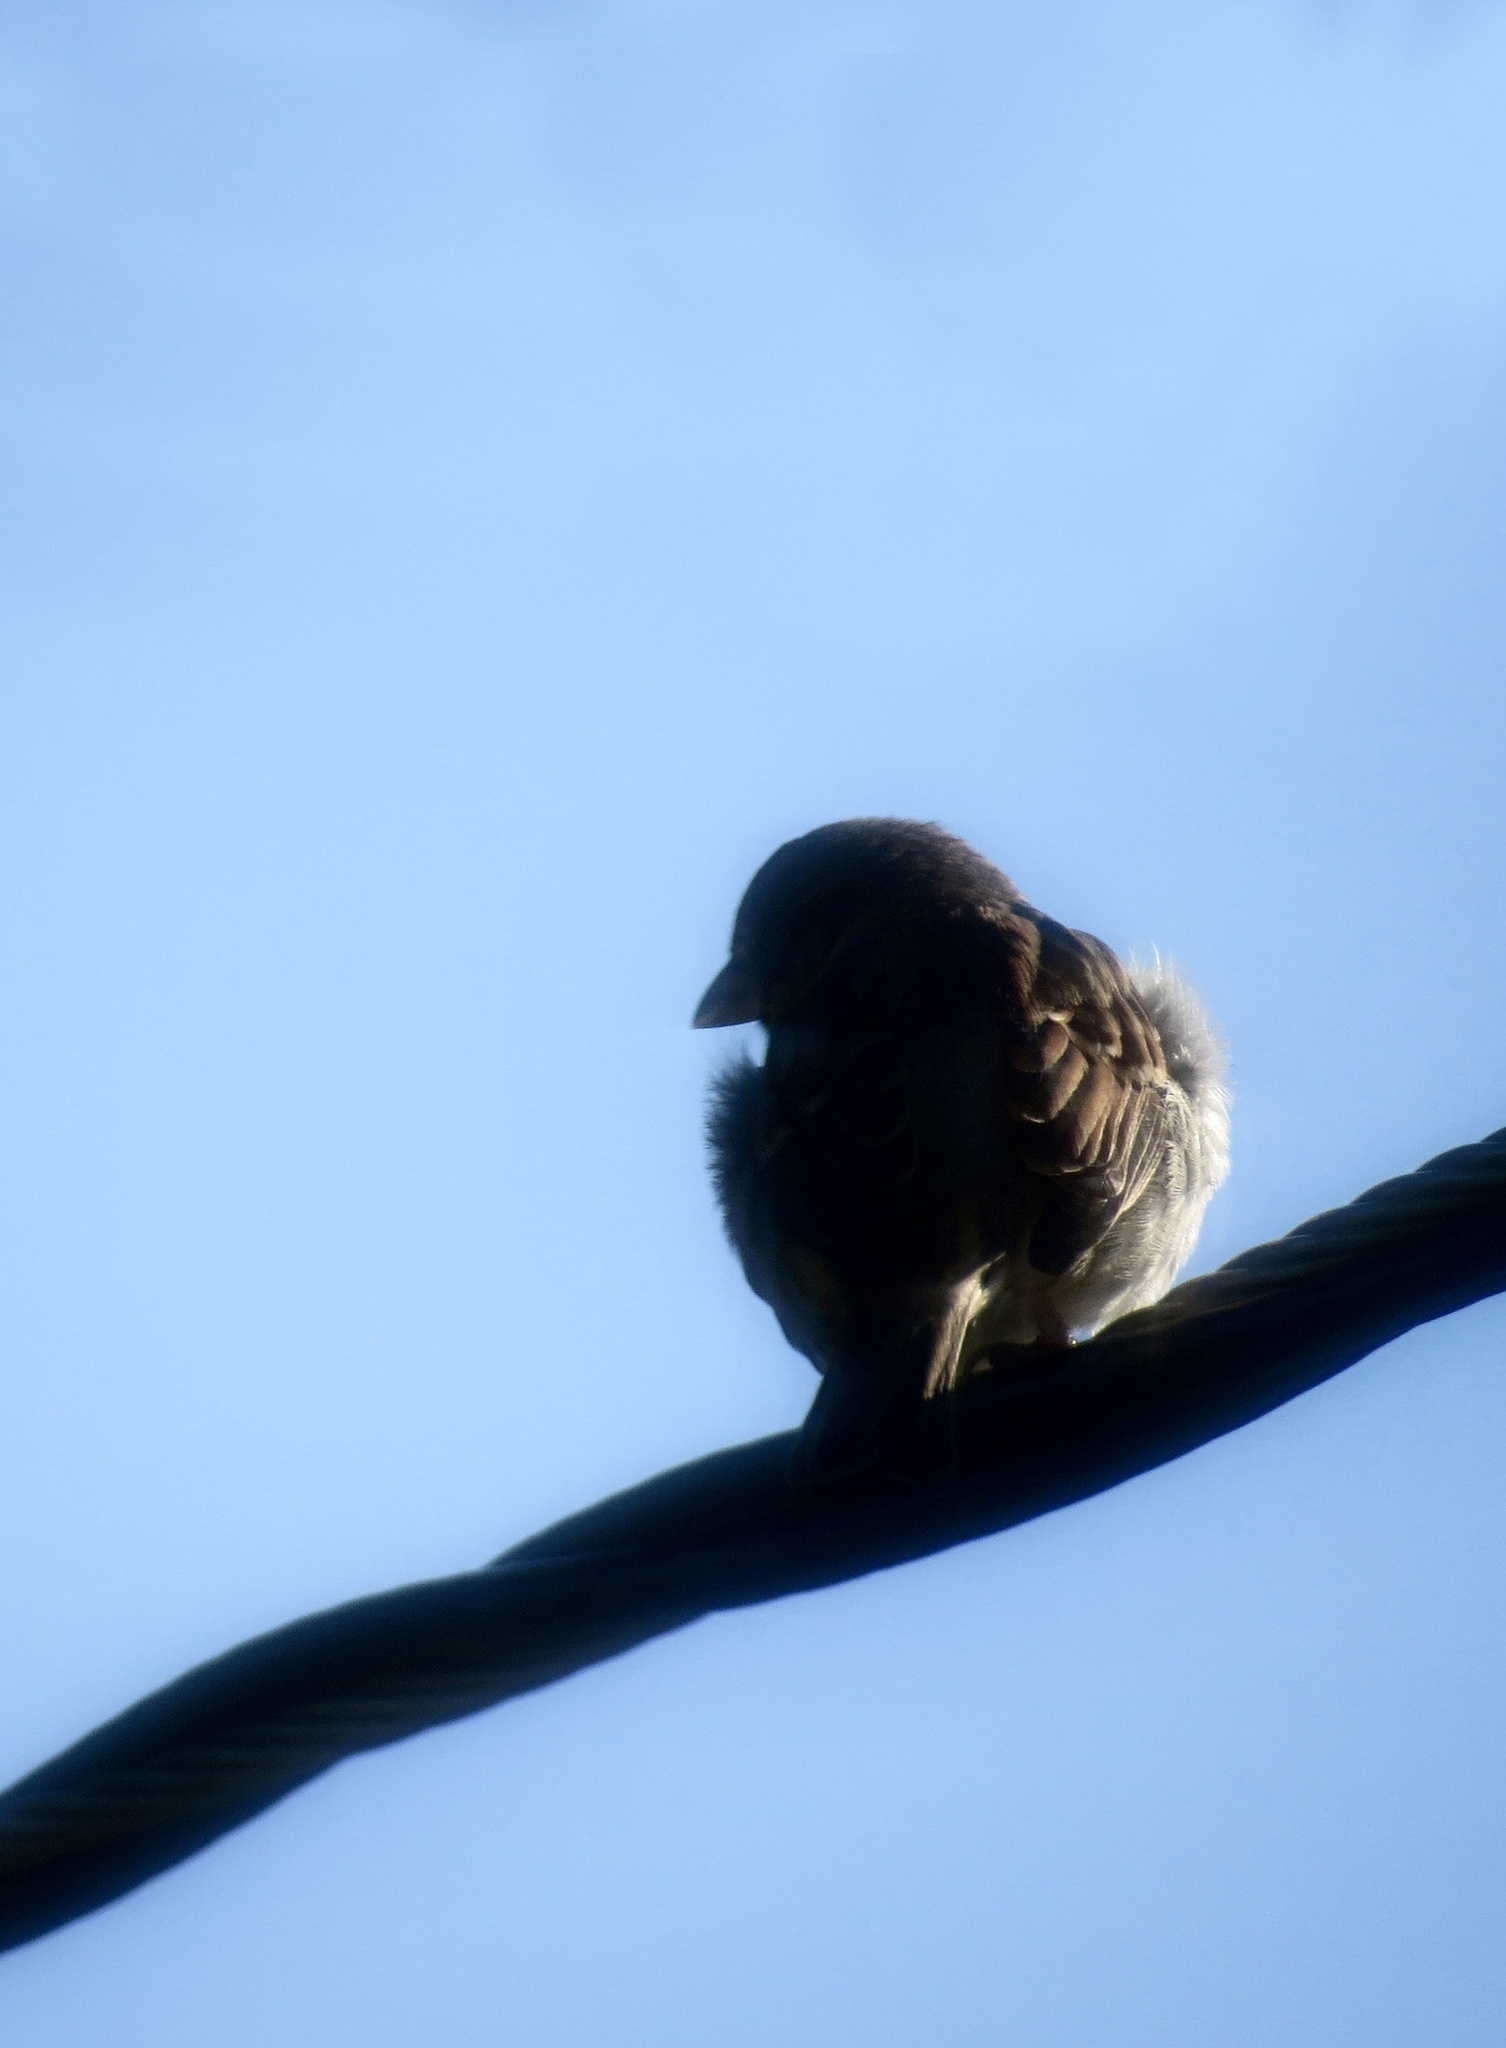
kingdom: Animalia
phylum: Chordata
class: Aves
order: Passeriformes
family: Passeridae
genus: Passer
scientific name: Passer domesticus
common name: House sparrow
